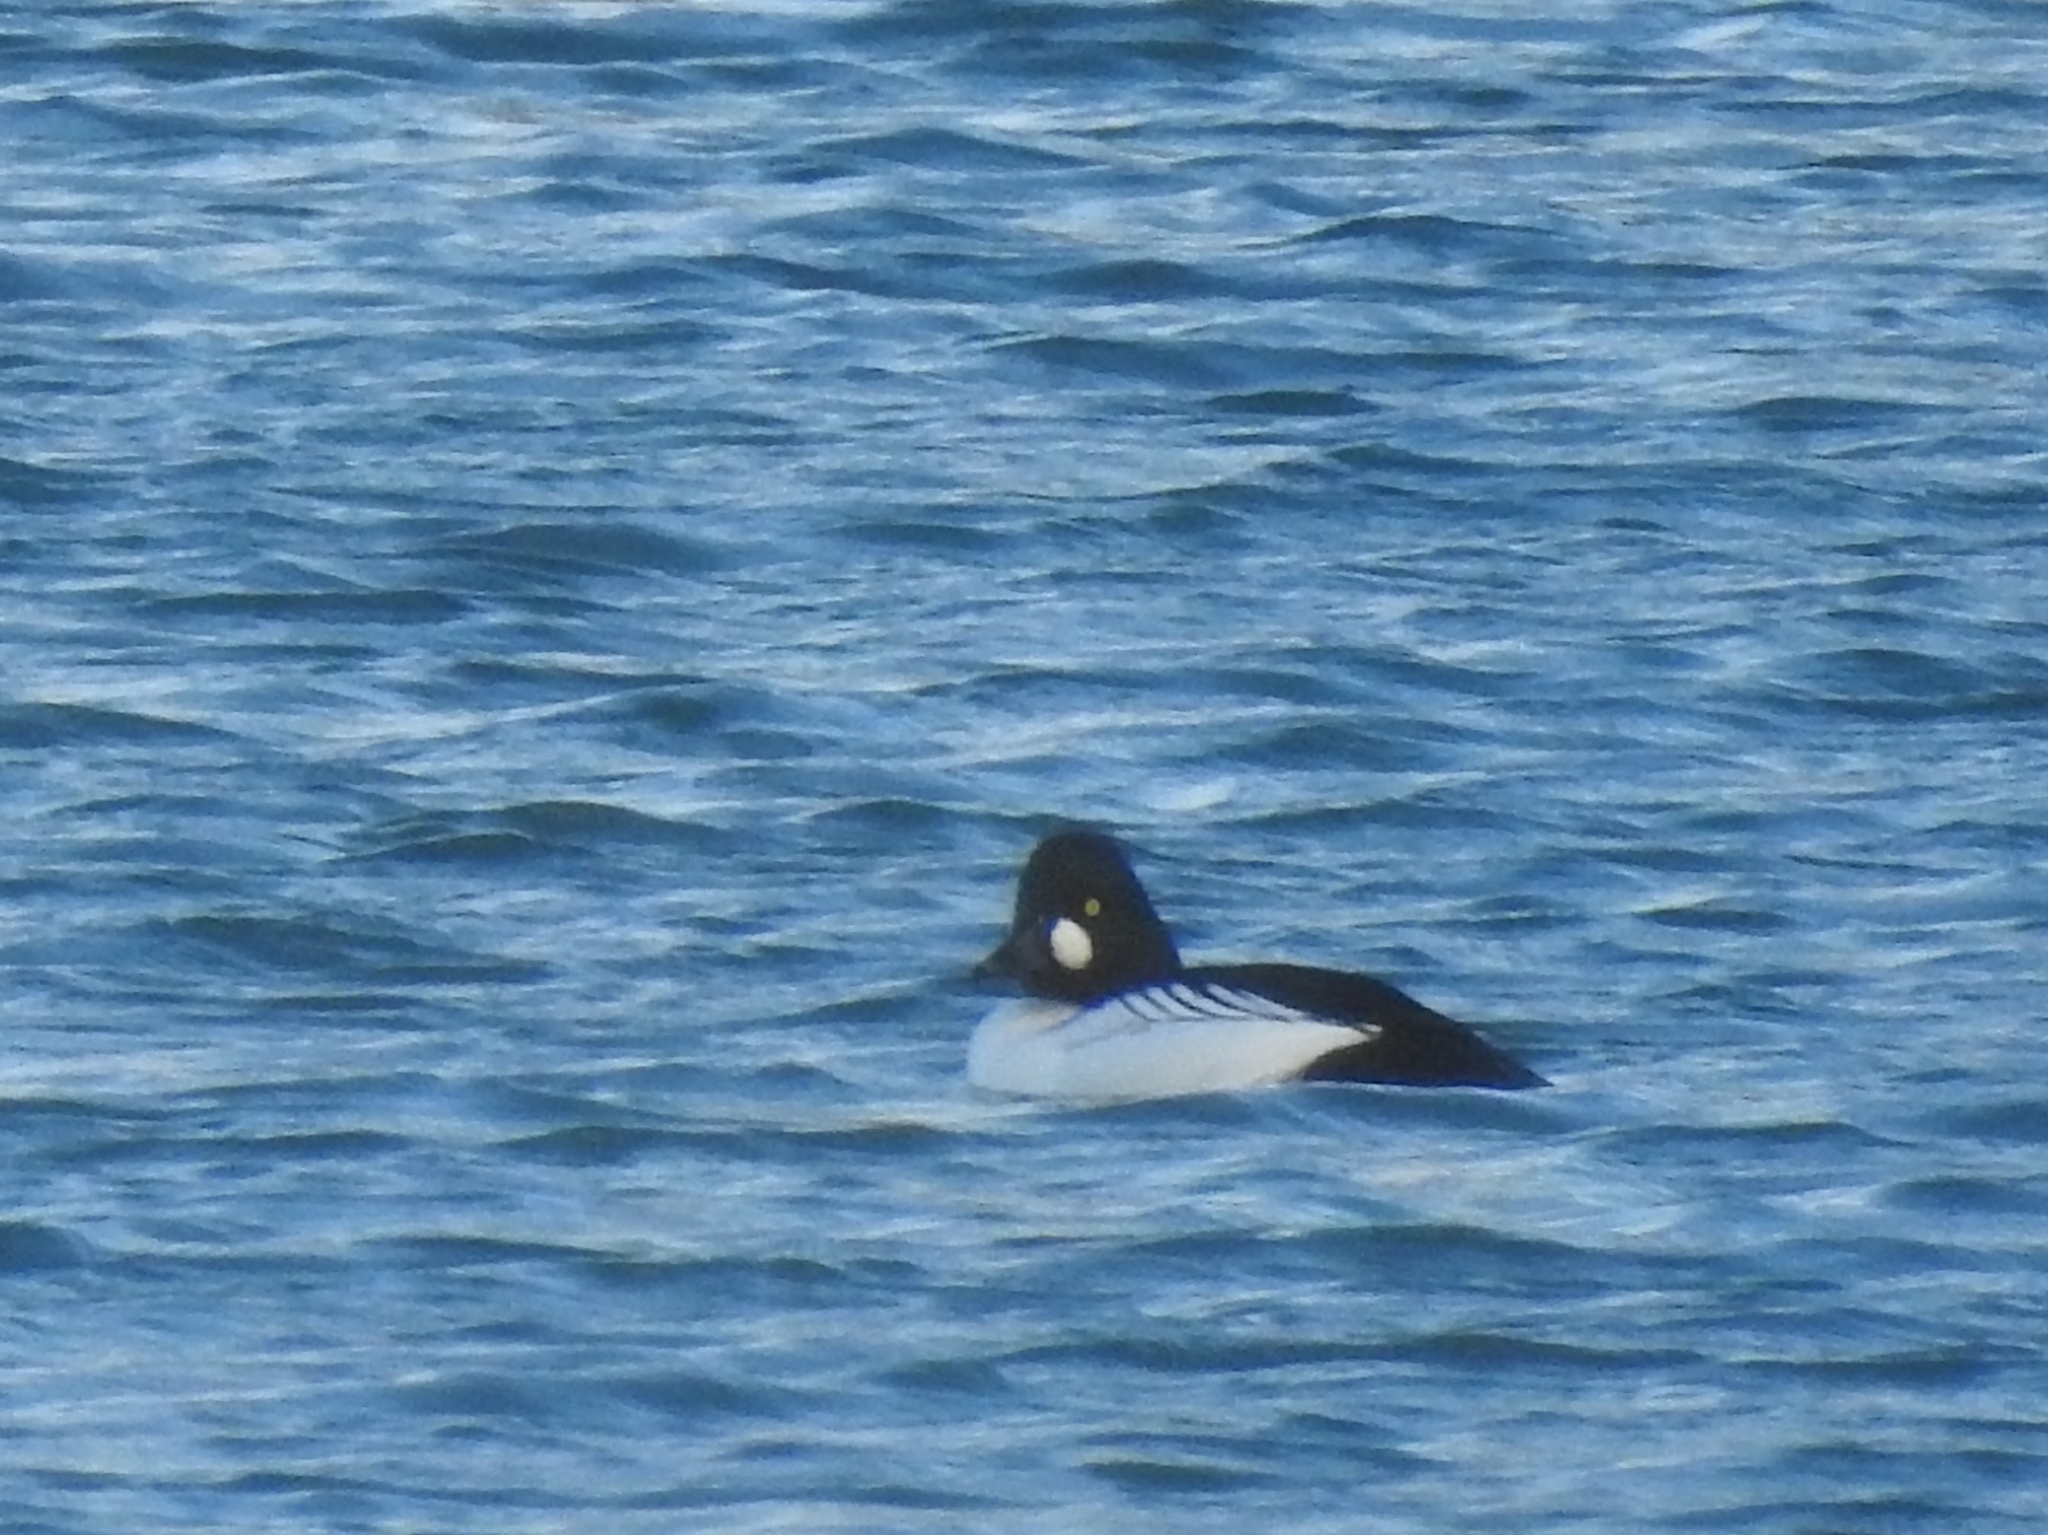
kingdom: Animalia
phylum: Chordata
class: Aves
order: Anseriformes
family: Anatidae
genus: Bucephala
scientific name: Bucephala clangula
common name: Common goldeneye
